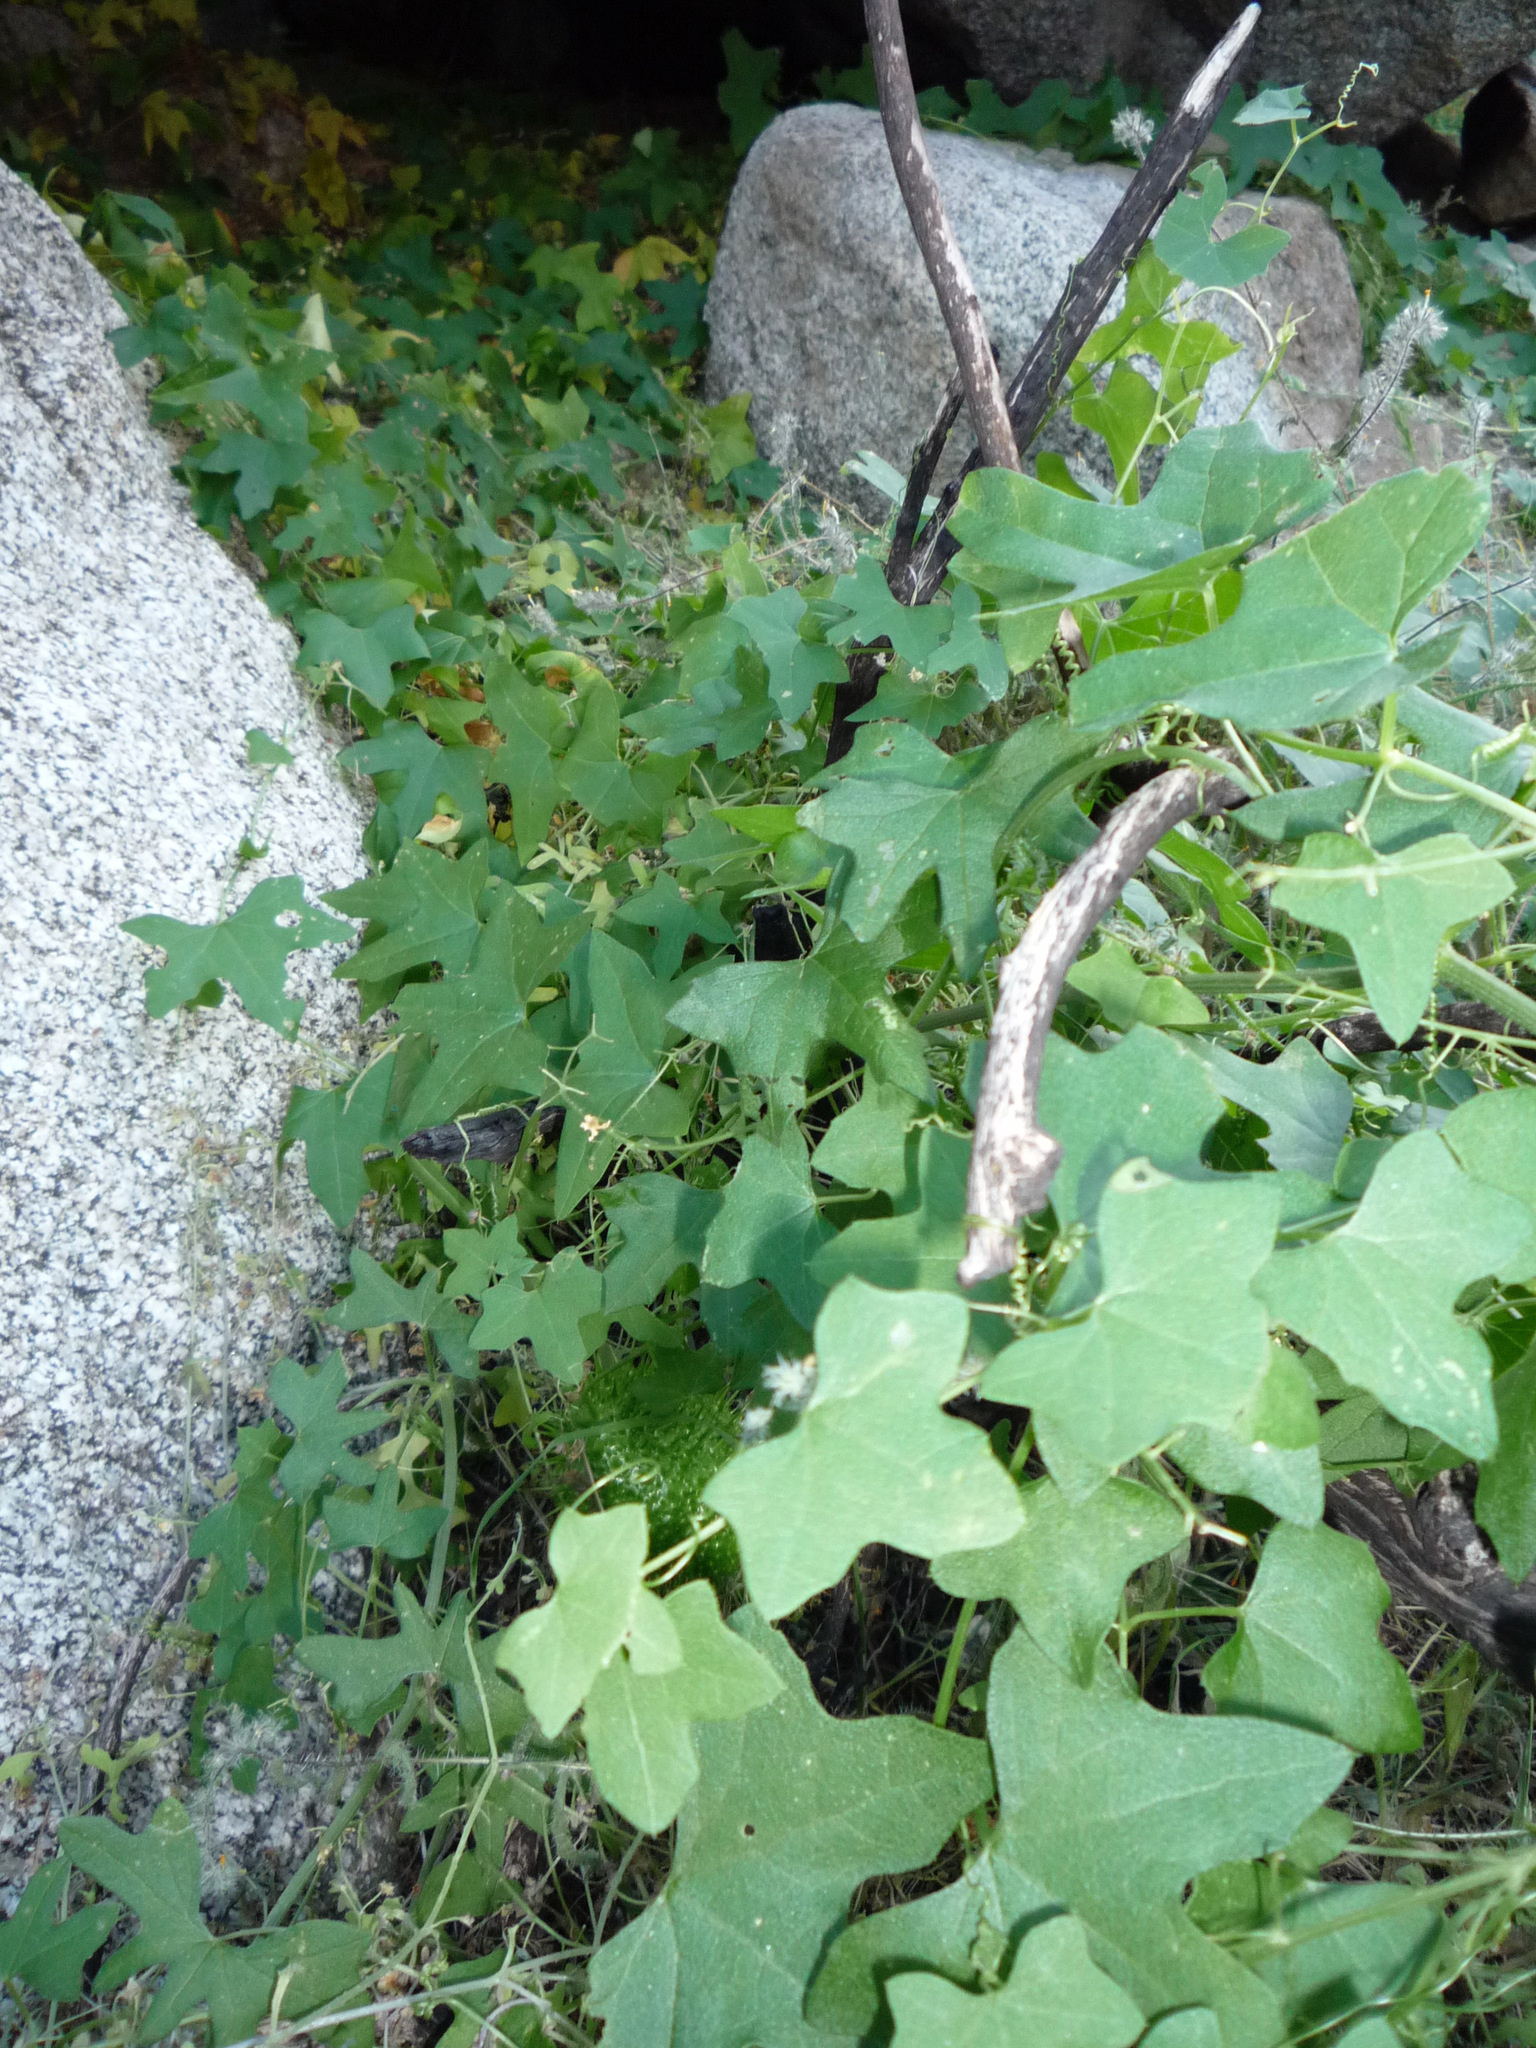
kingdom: Plantae
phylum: Tracheophyta
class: Magnoliopsida
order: Cucurbitales
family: Cucurbitaceae
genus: Marah
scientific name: Marah macrocarpa
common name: Cucamonga manroot
